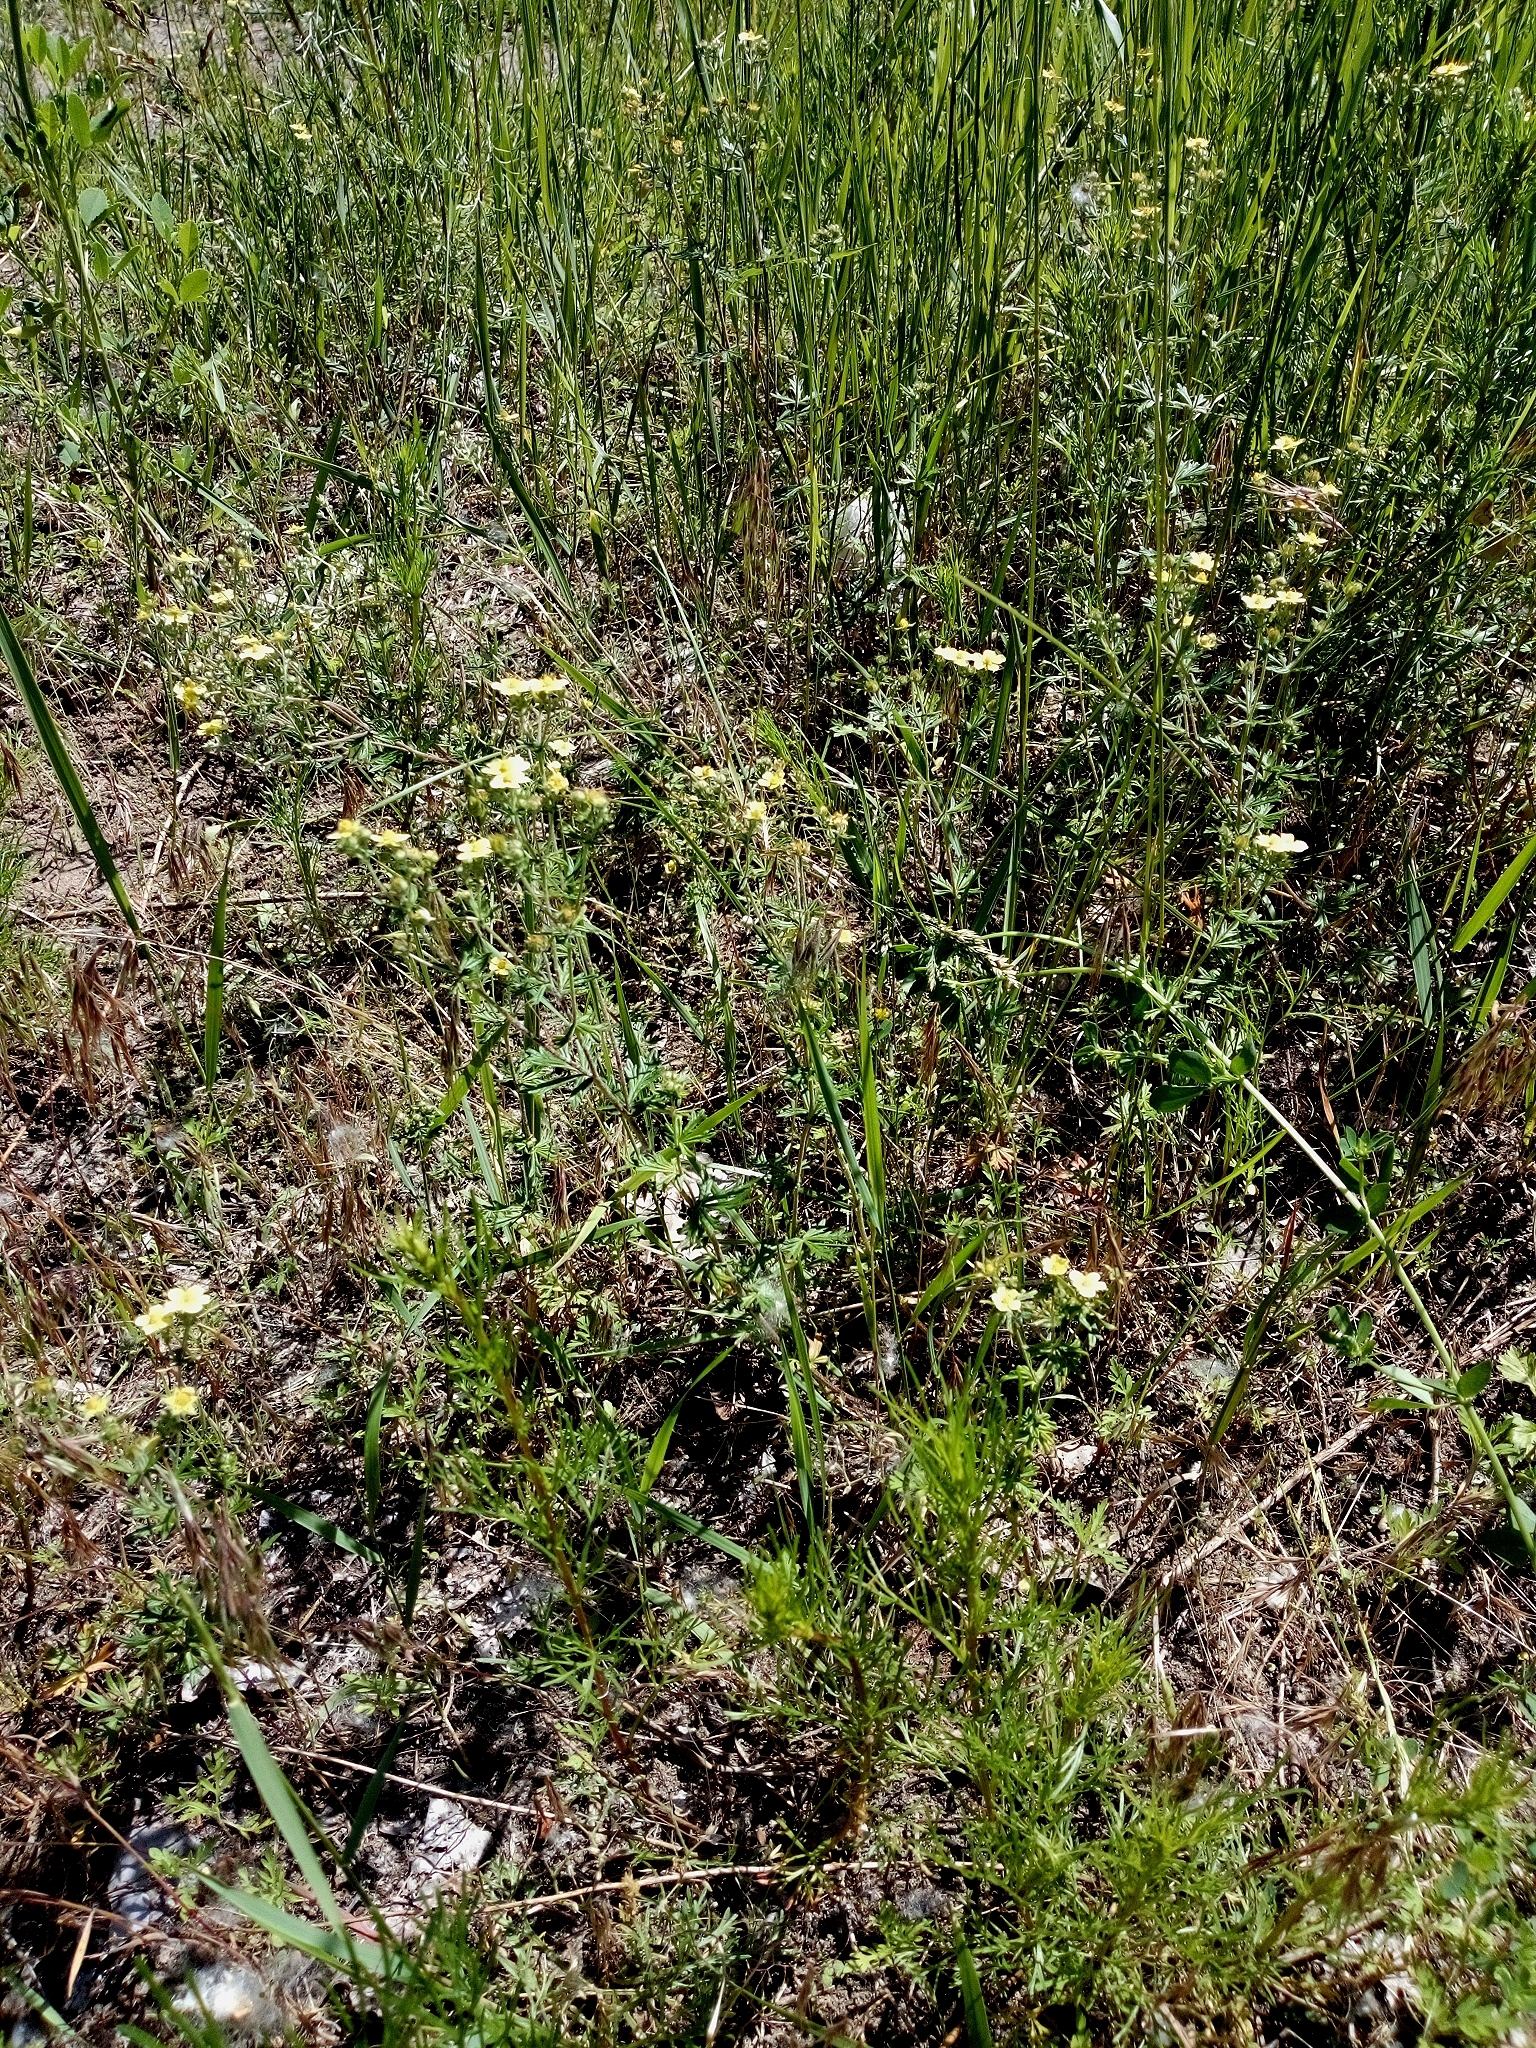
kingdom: Plantae
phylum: Tracheophyta
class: Magnoliopsida
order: Rosales
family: Rosaceae
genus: Potentilla
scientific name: Potentilla argentea
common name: Hoary cinquefoil
